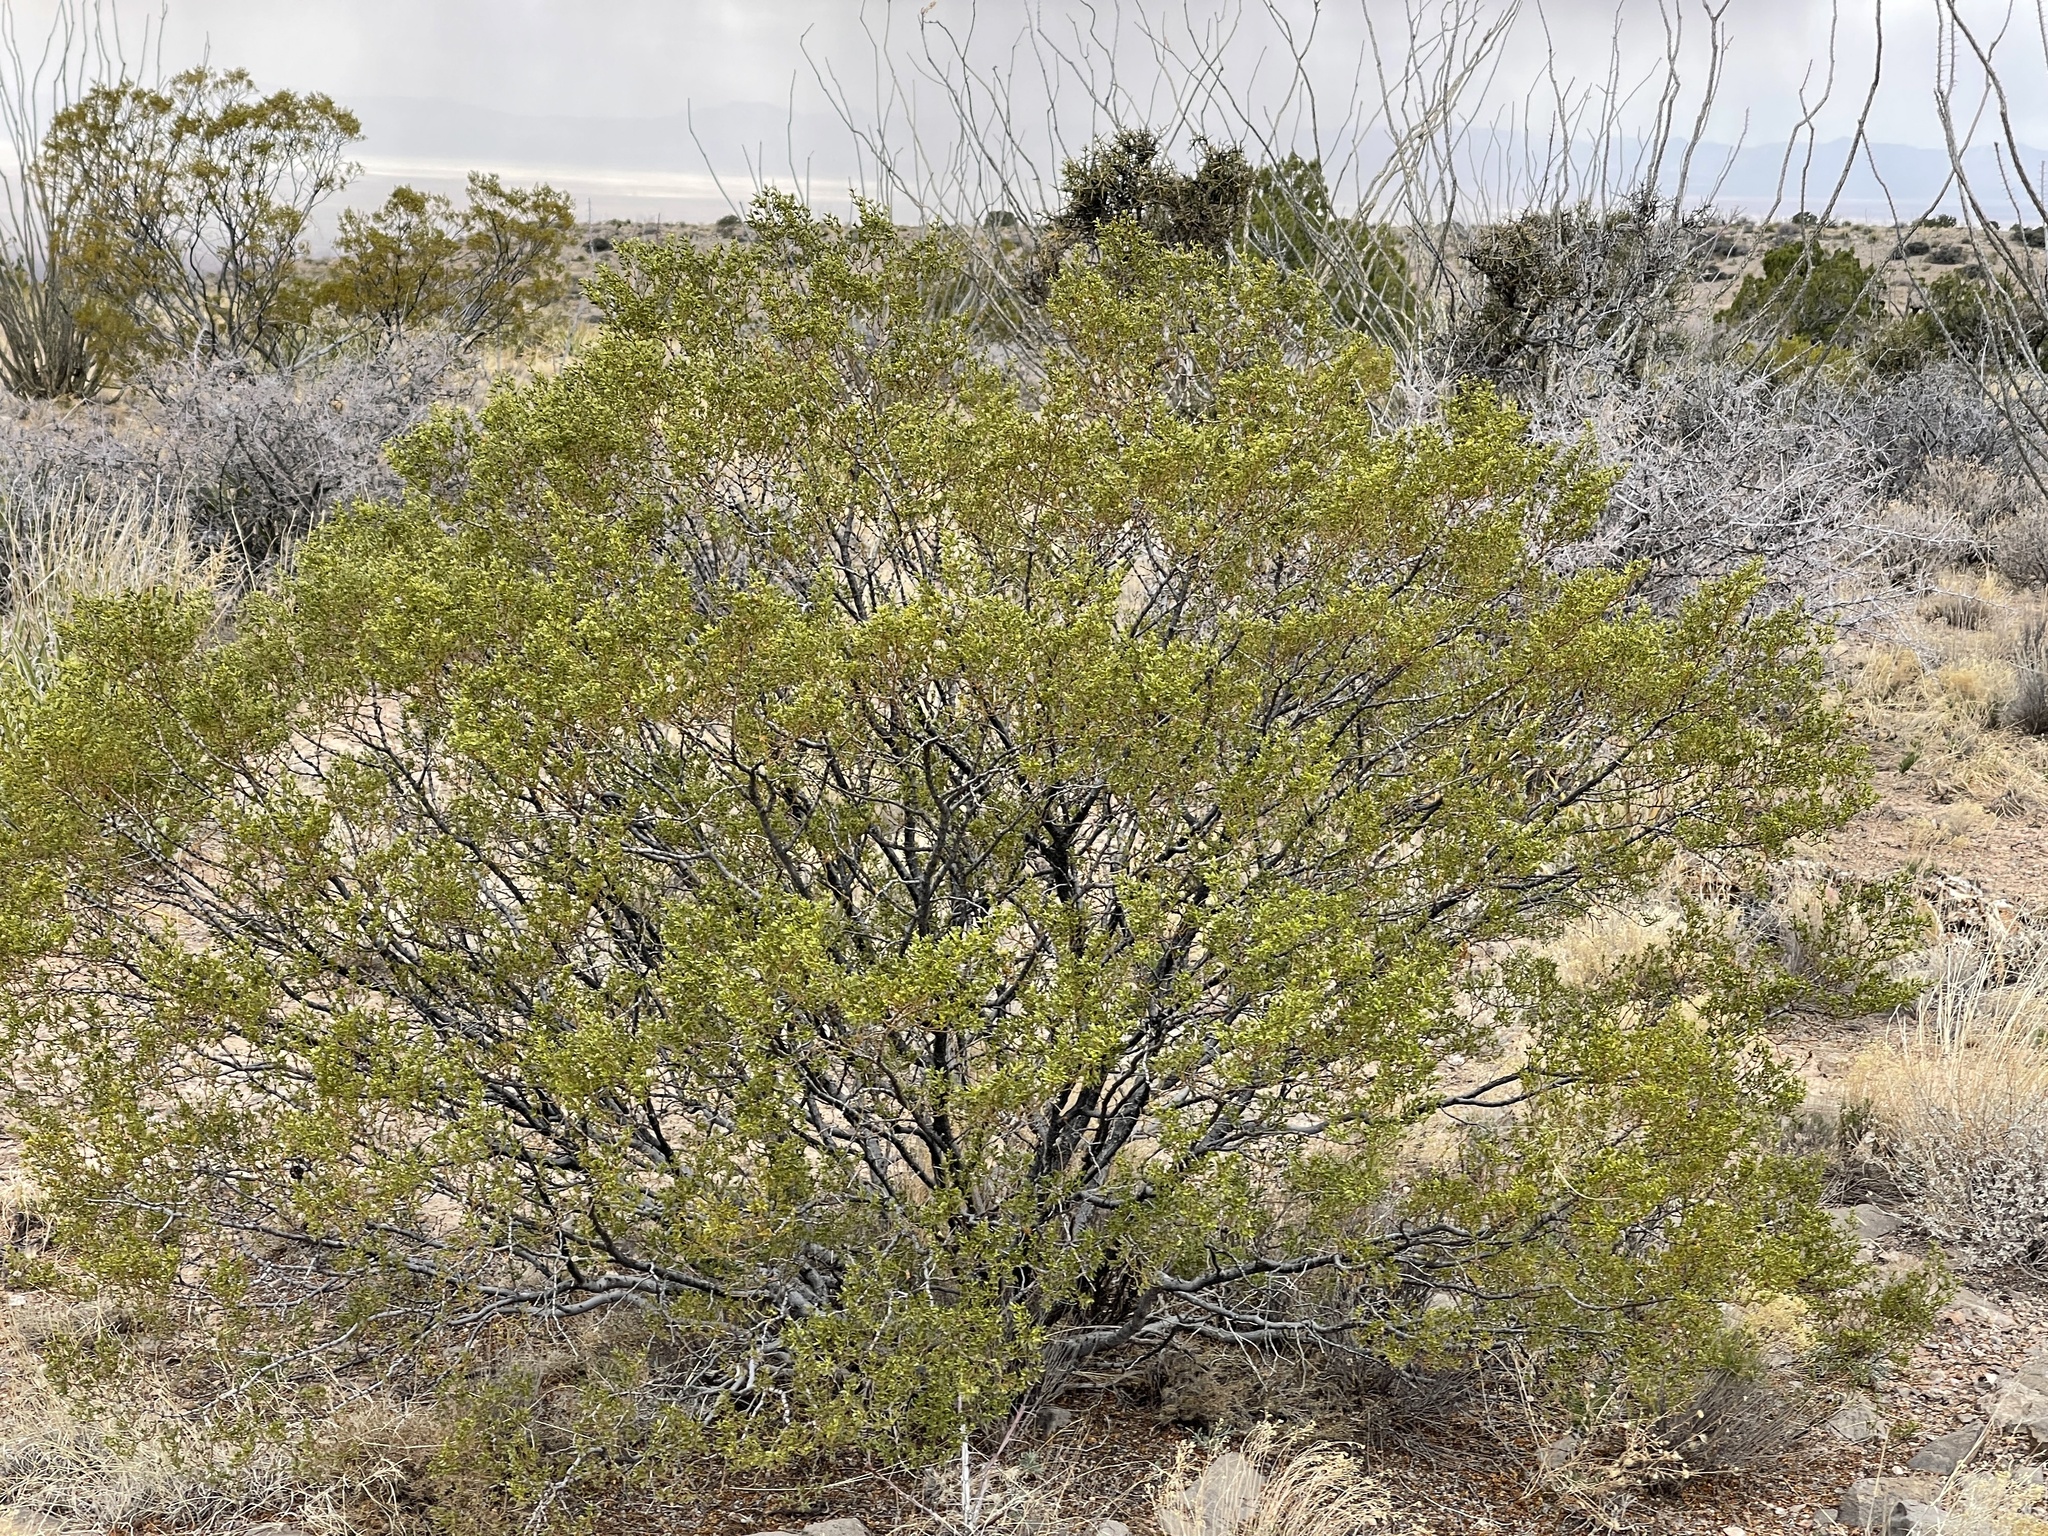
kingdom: Plantae
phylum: Tracheophyta
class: Magnoliopsida
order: Zygophyllales
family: Zygophyllaceae
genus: Larrea
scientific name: Larrea tridentata
